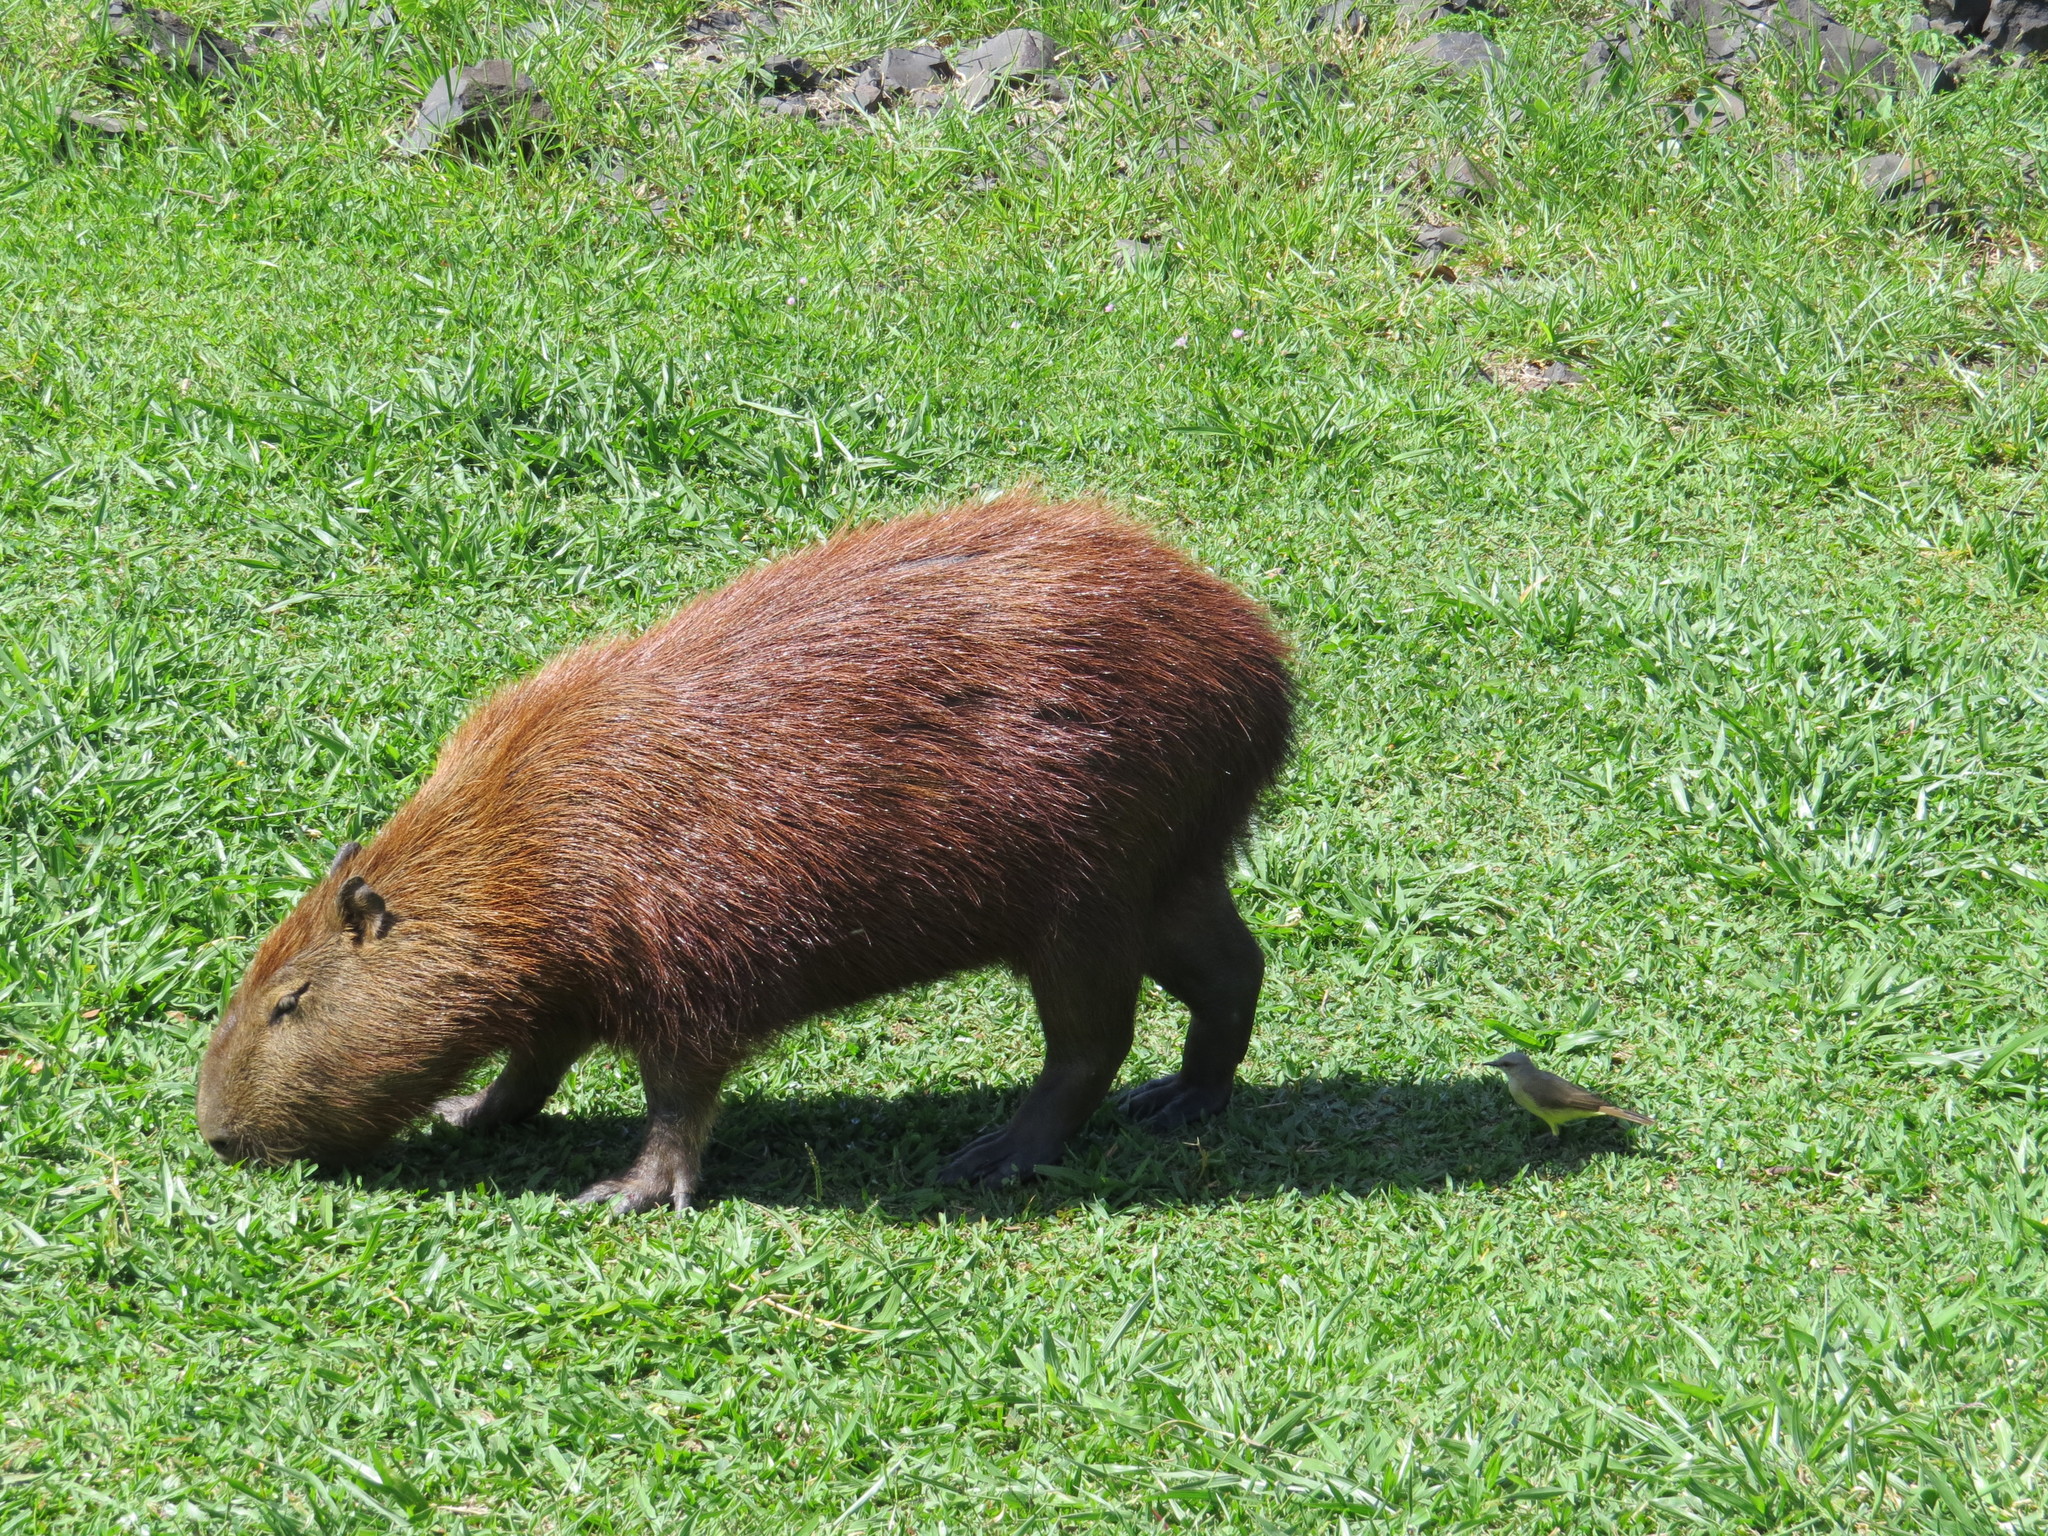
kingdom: Animalia
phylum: Chordata
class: Mammalia
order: Rodentia
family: Caviidae
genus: Hydrochoerus
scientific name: Hydrochoerus hydrochaeris
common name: Capybara
